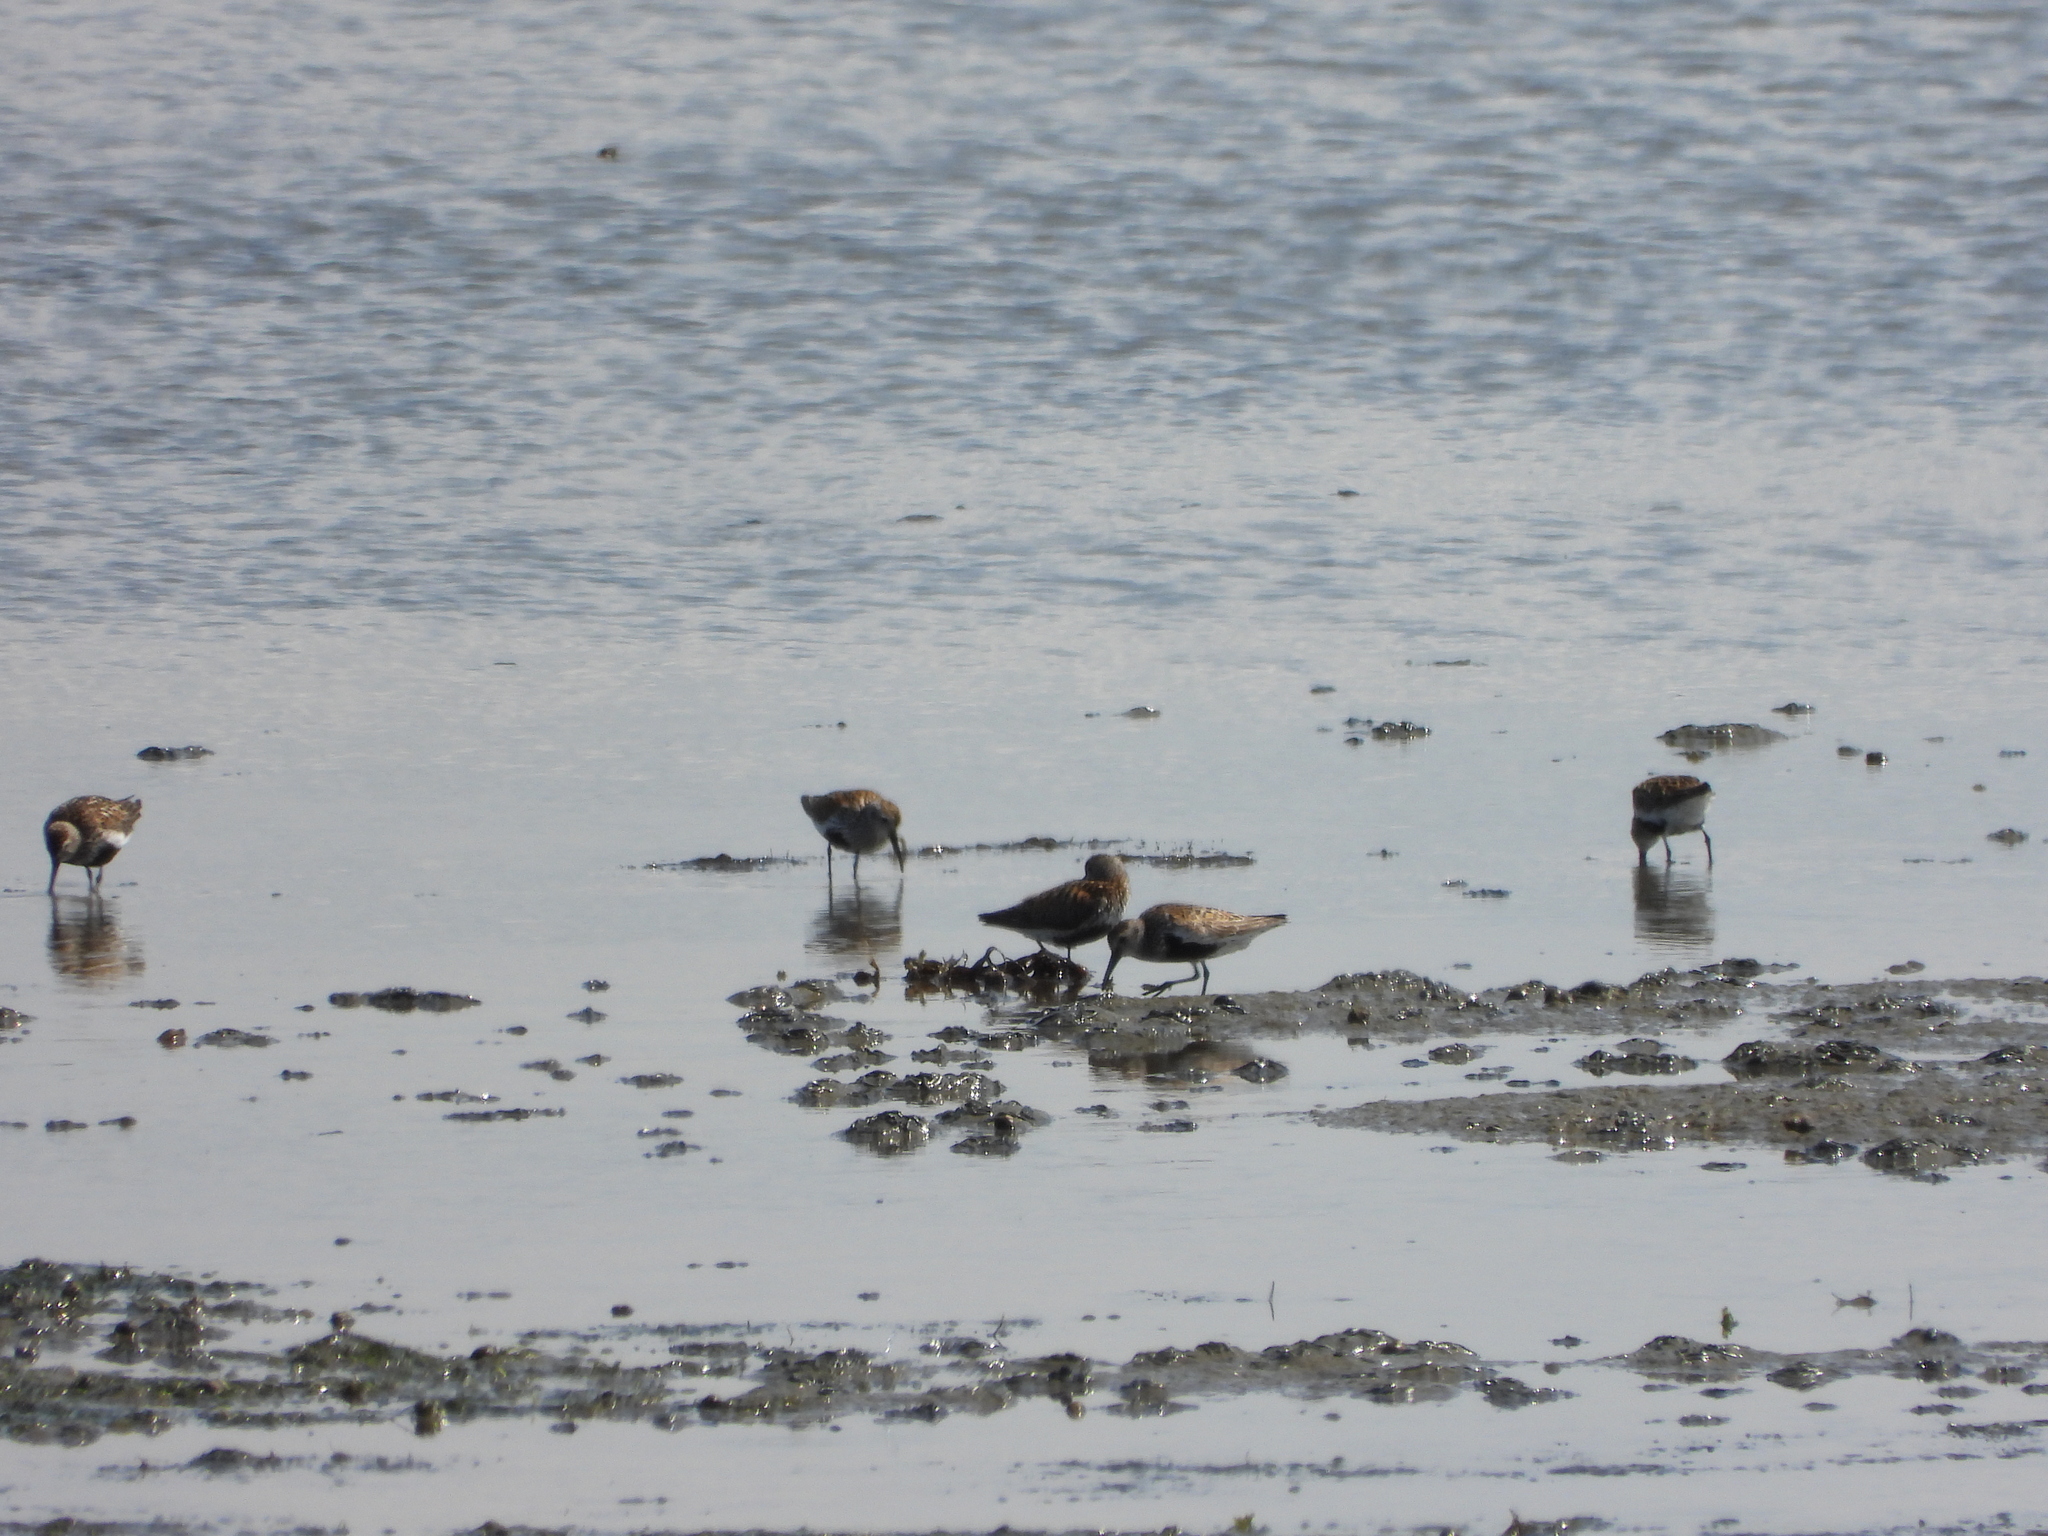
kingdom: Animalia
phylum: Chordata
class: Aves
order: Charadriiformes
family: Scolopacidae
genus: Calidris
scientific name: Calidris alpina
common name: Dunlin
